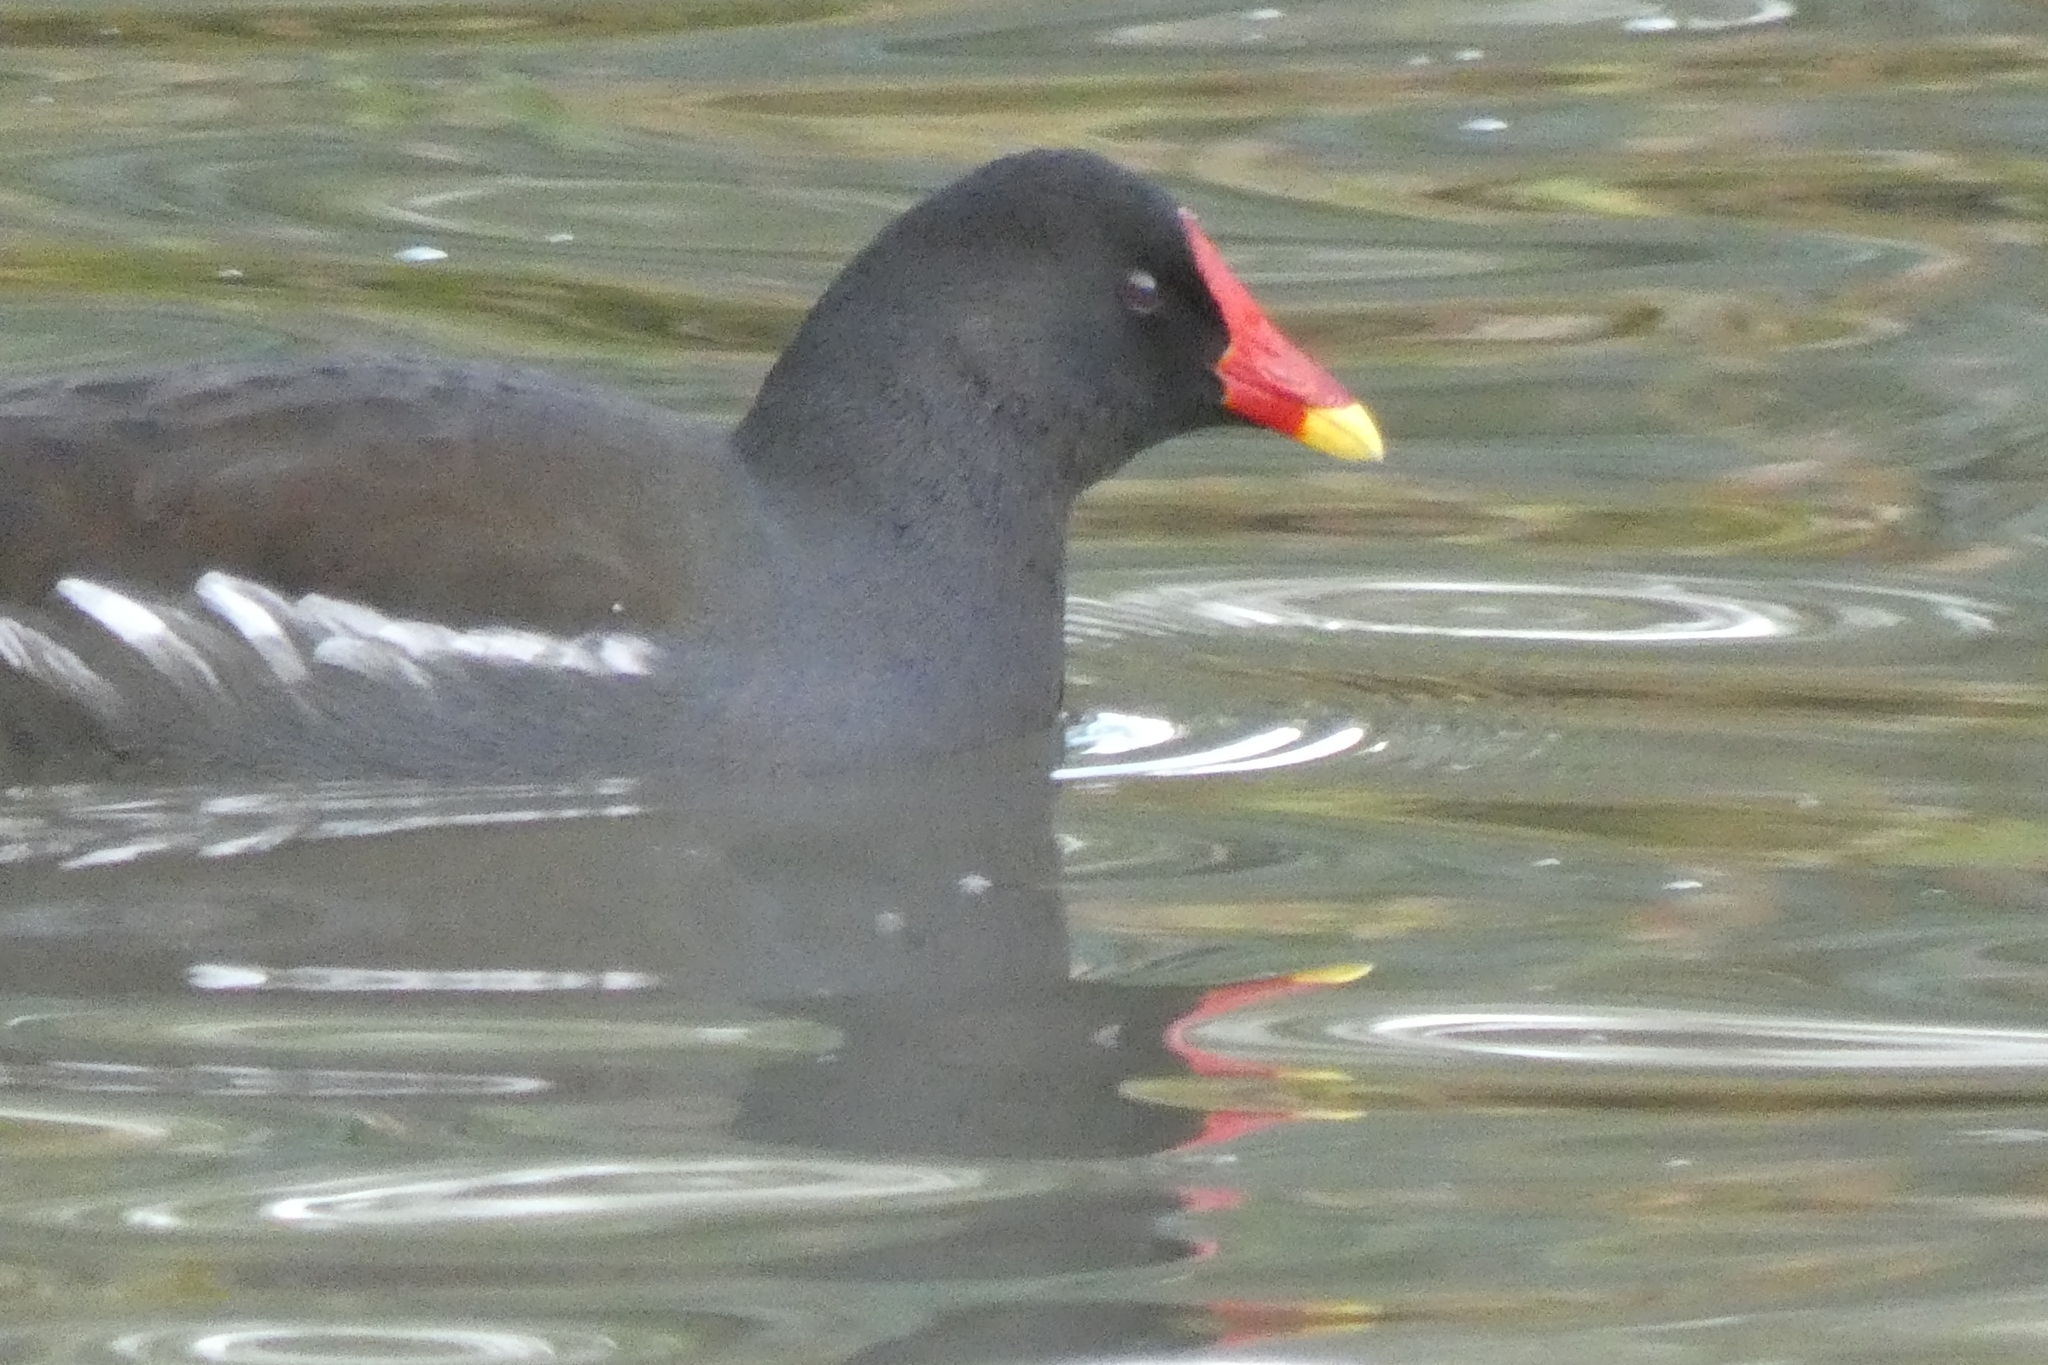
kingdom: Animalia
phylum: Chordata
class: Aves
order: Gruiformes
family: Rallidae
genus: Gallinula
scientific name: Gallinula chloropus
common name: Common moorhen
